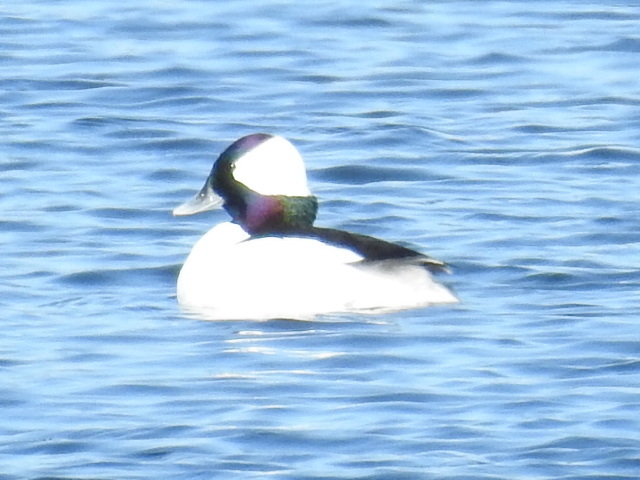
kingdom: Animalia
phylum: Chordata
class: Aves
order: Anseriformes
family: Anatidae
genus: Bucephala
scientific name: Bucephala albeola
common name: Bufflehead
